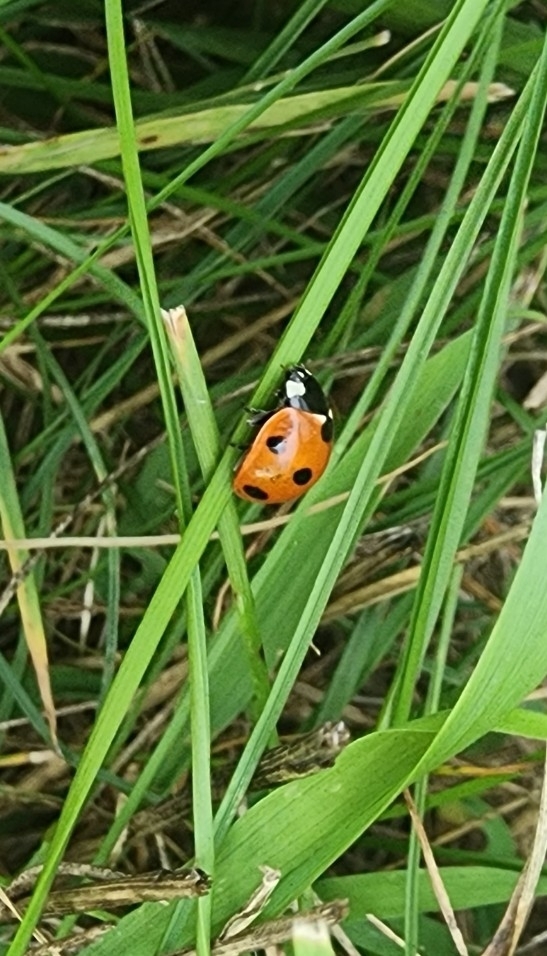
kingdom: Animalia
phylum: Arthropoda
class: Insecta
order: Coleoptera
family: Coccinellidae
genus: Coccinella
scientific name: Coccinella septempunctata
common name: Sevenspotted lady beetle
